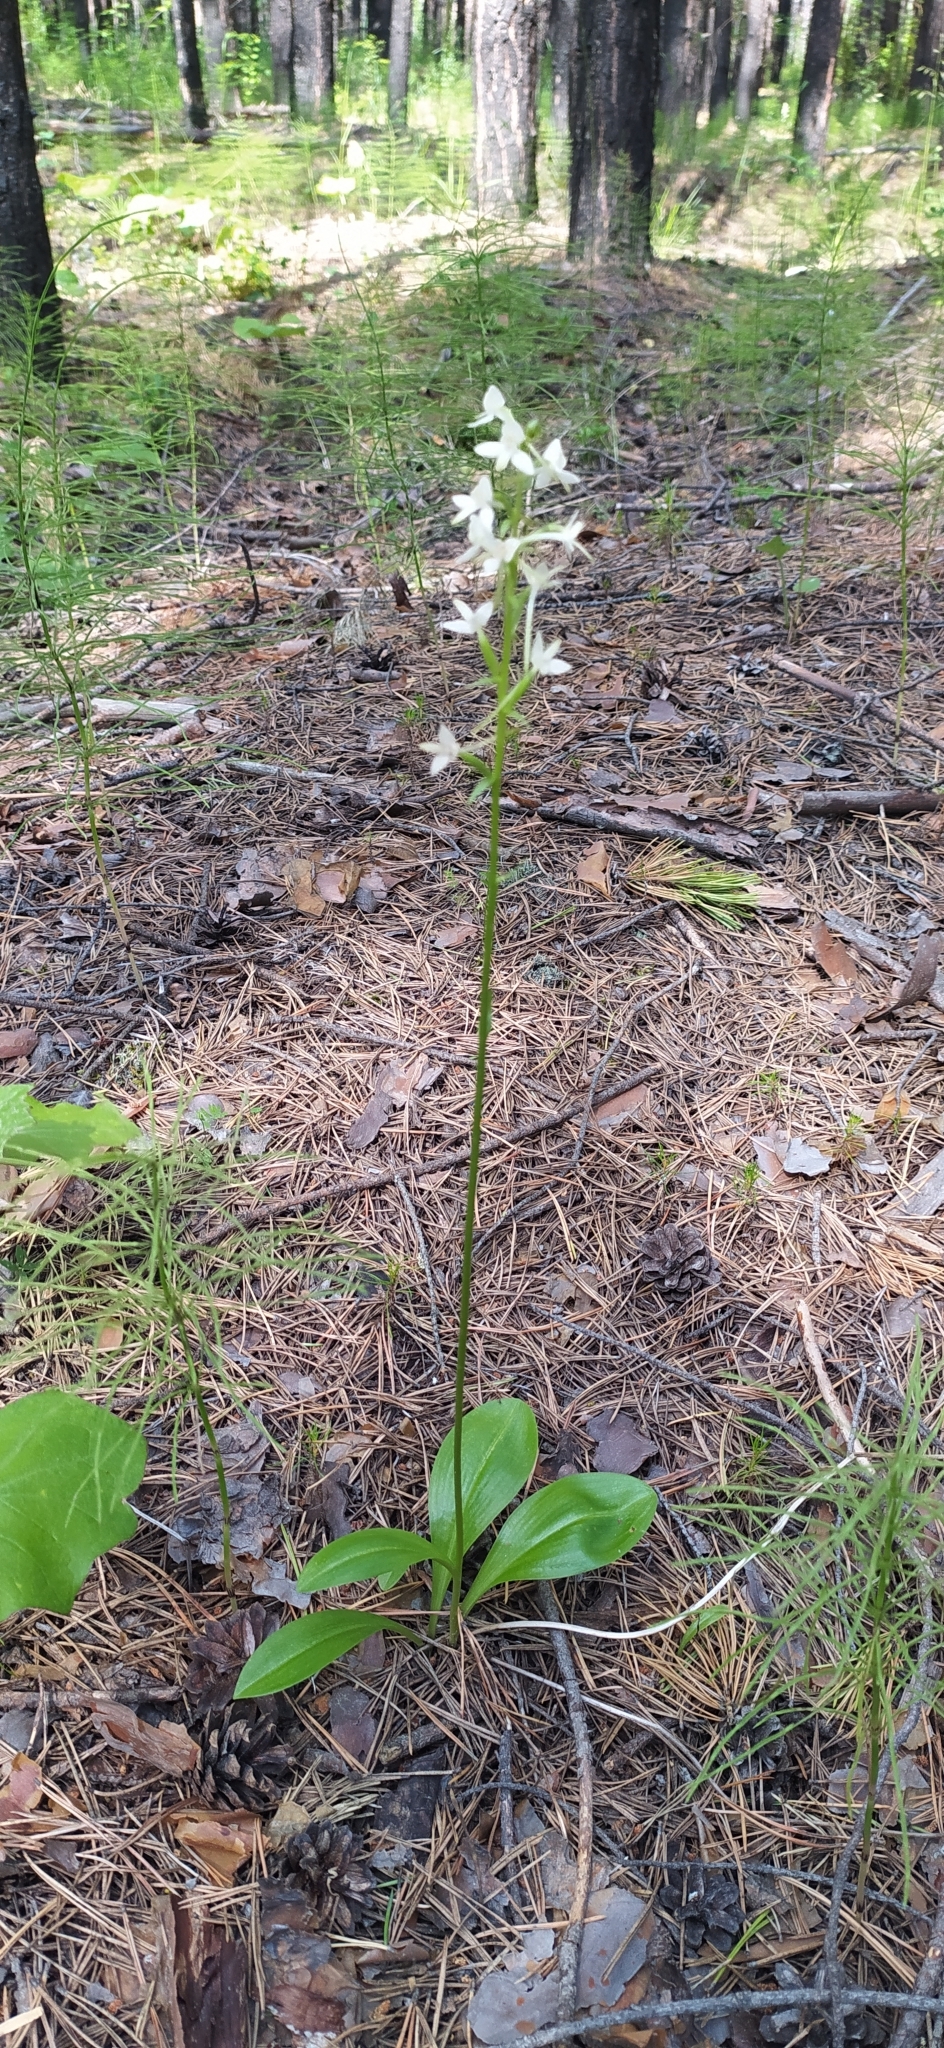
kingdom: Plantae
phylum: Tracheophyta
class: Liliopsida
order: Asparagales
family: Orchidaceae
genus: Platanthera
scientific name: Platanthera bifolia
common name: Lesser butterfly-orchid
